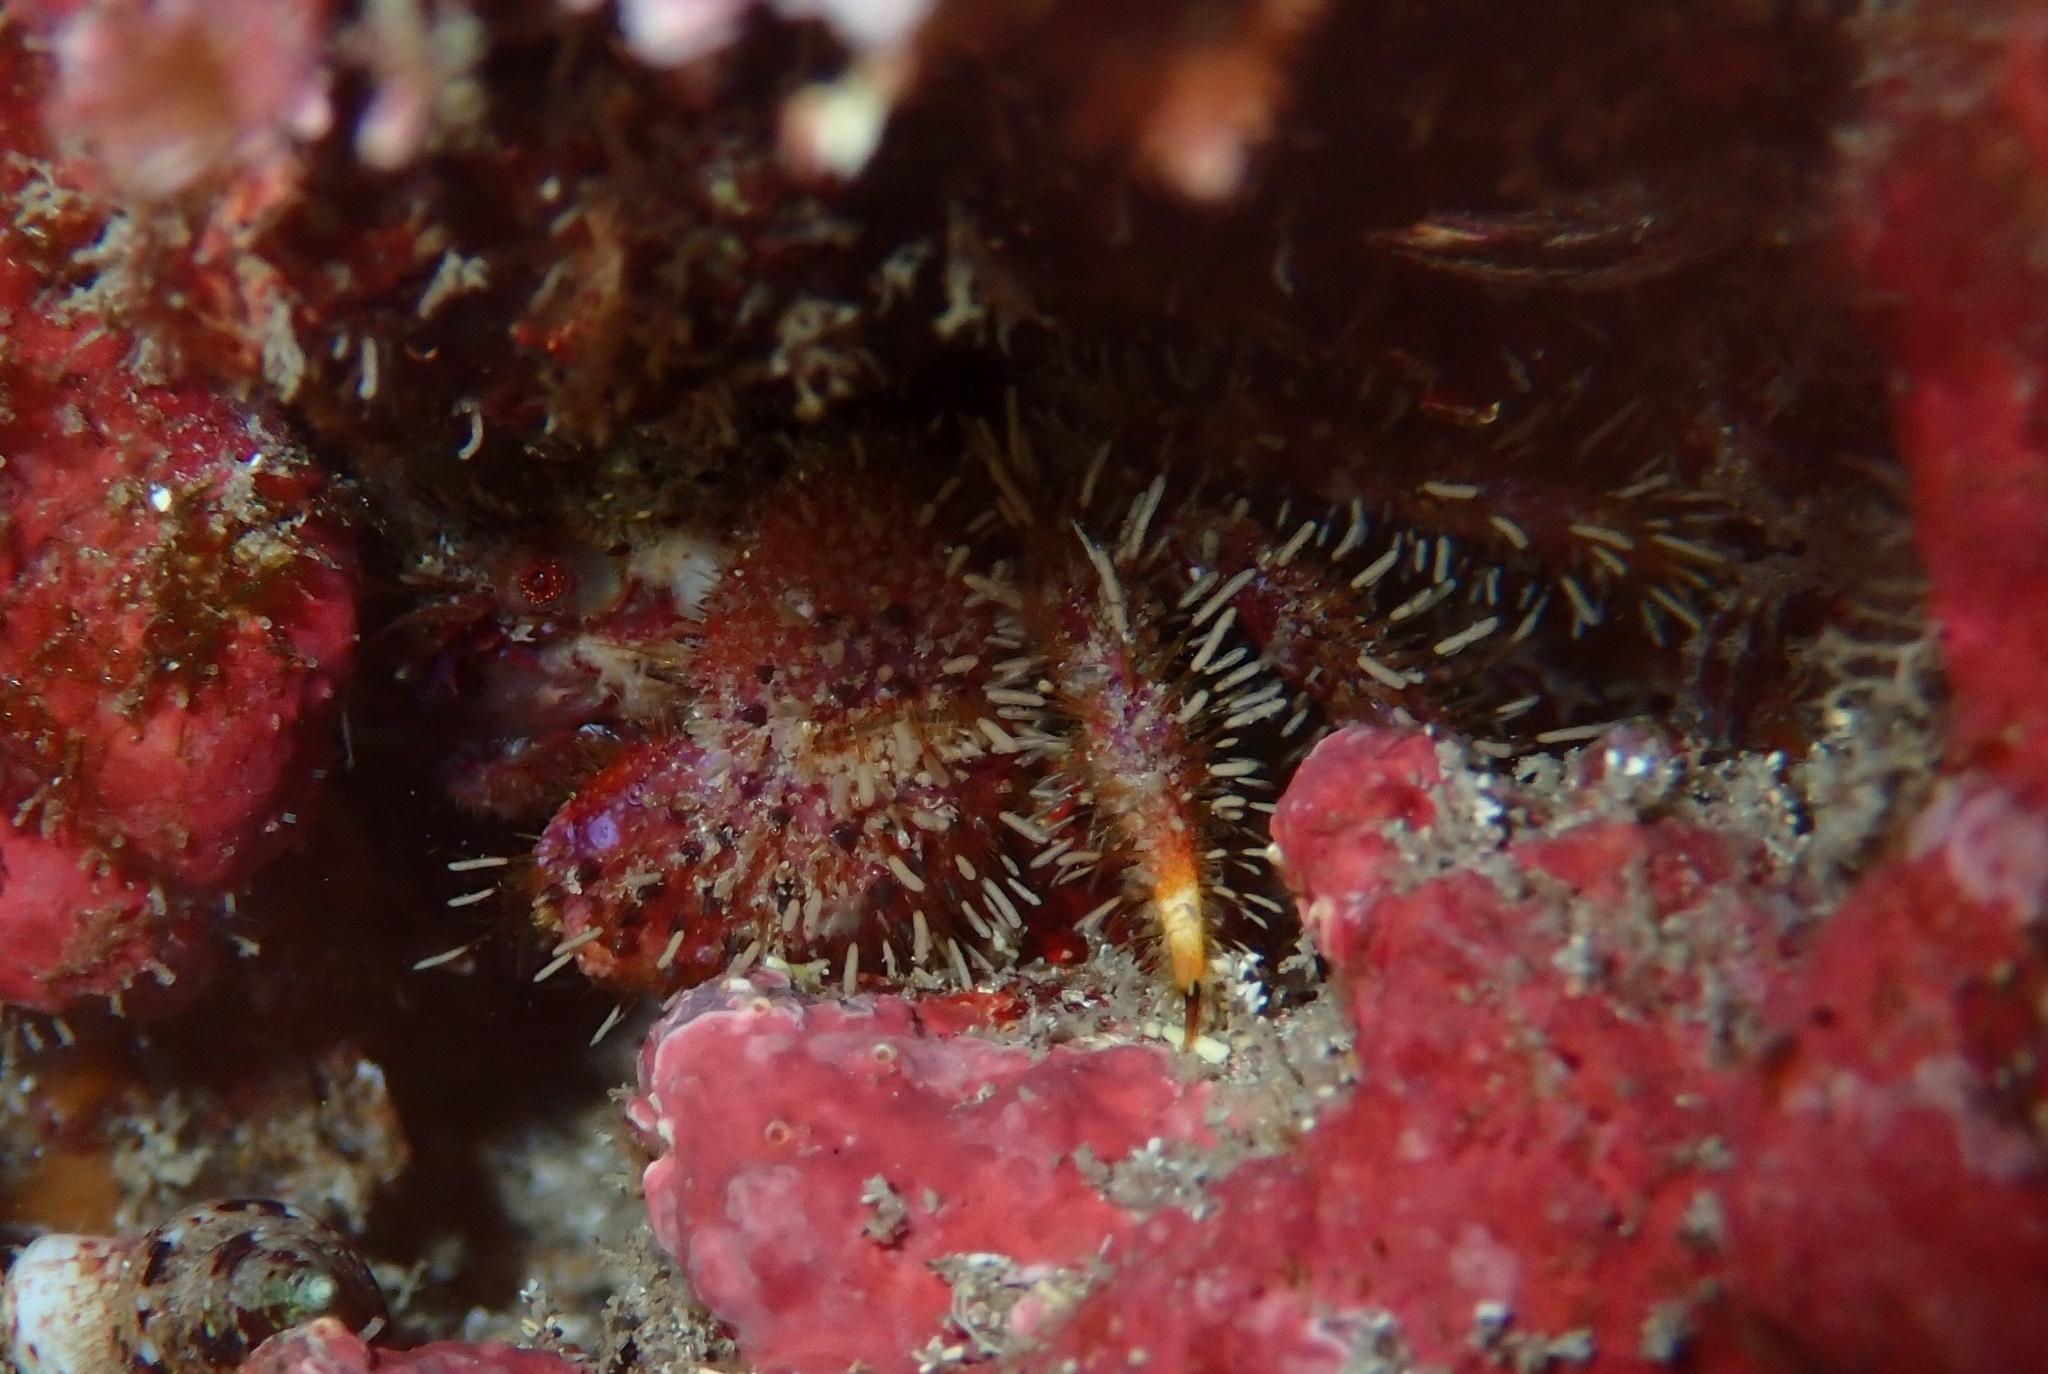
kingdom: Animalia
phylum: Arthropoda
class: Malacostraca
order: Decapoda
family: Pilumnidae
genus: Pilumnus
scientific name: Pilumnus hirtellus
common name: Hairy crab
